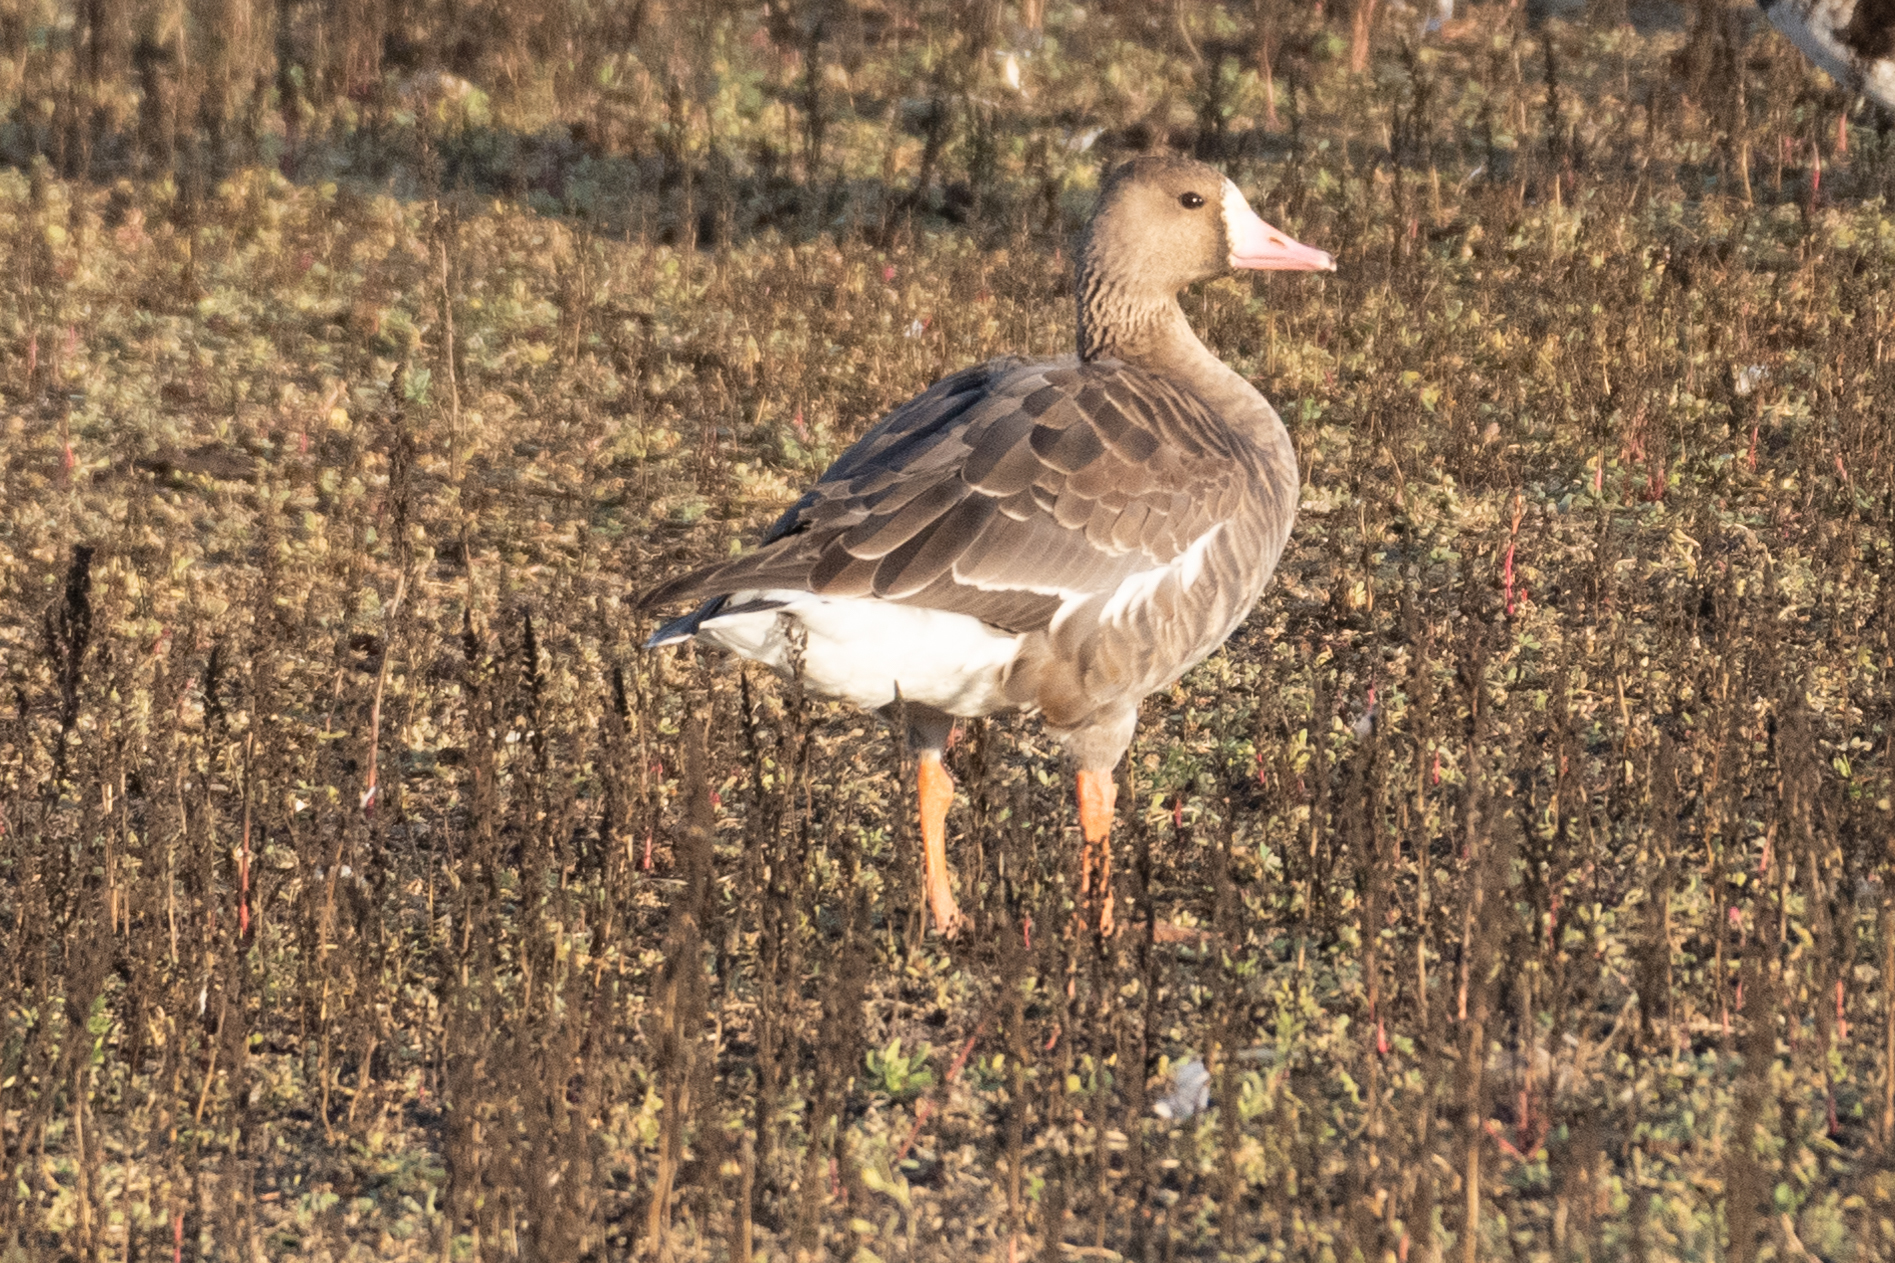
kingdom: Animalia
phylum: Chordata
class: Aves
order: Anseriformes
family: Anatidae
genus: Anser
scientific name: Anser albifrons
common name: Greater white-fronted goose
